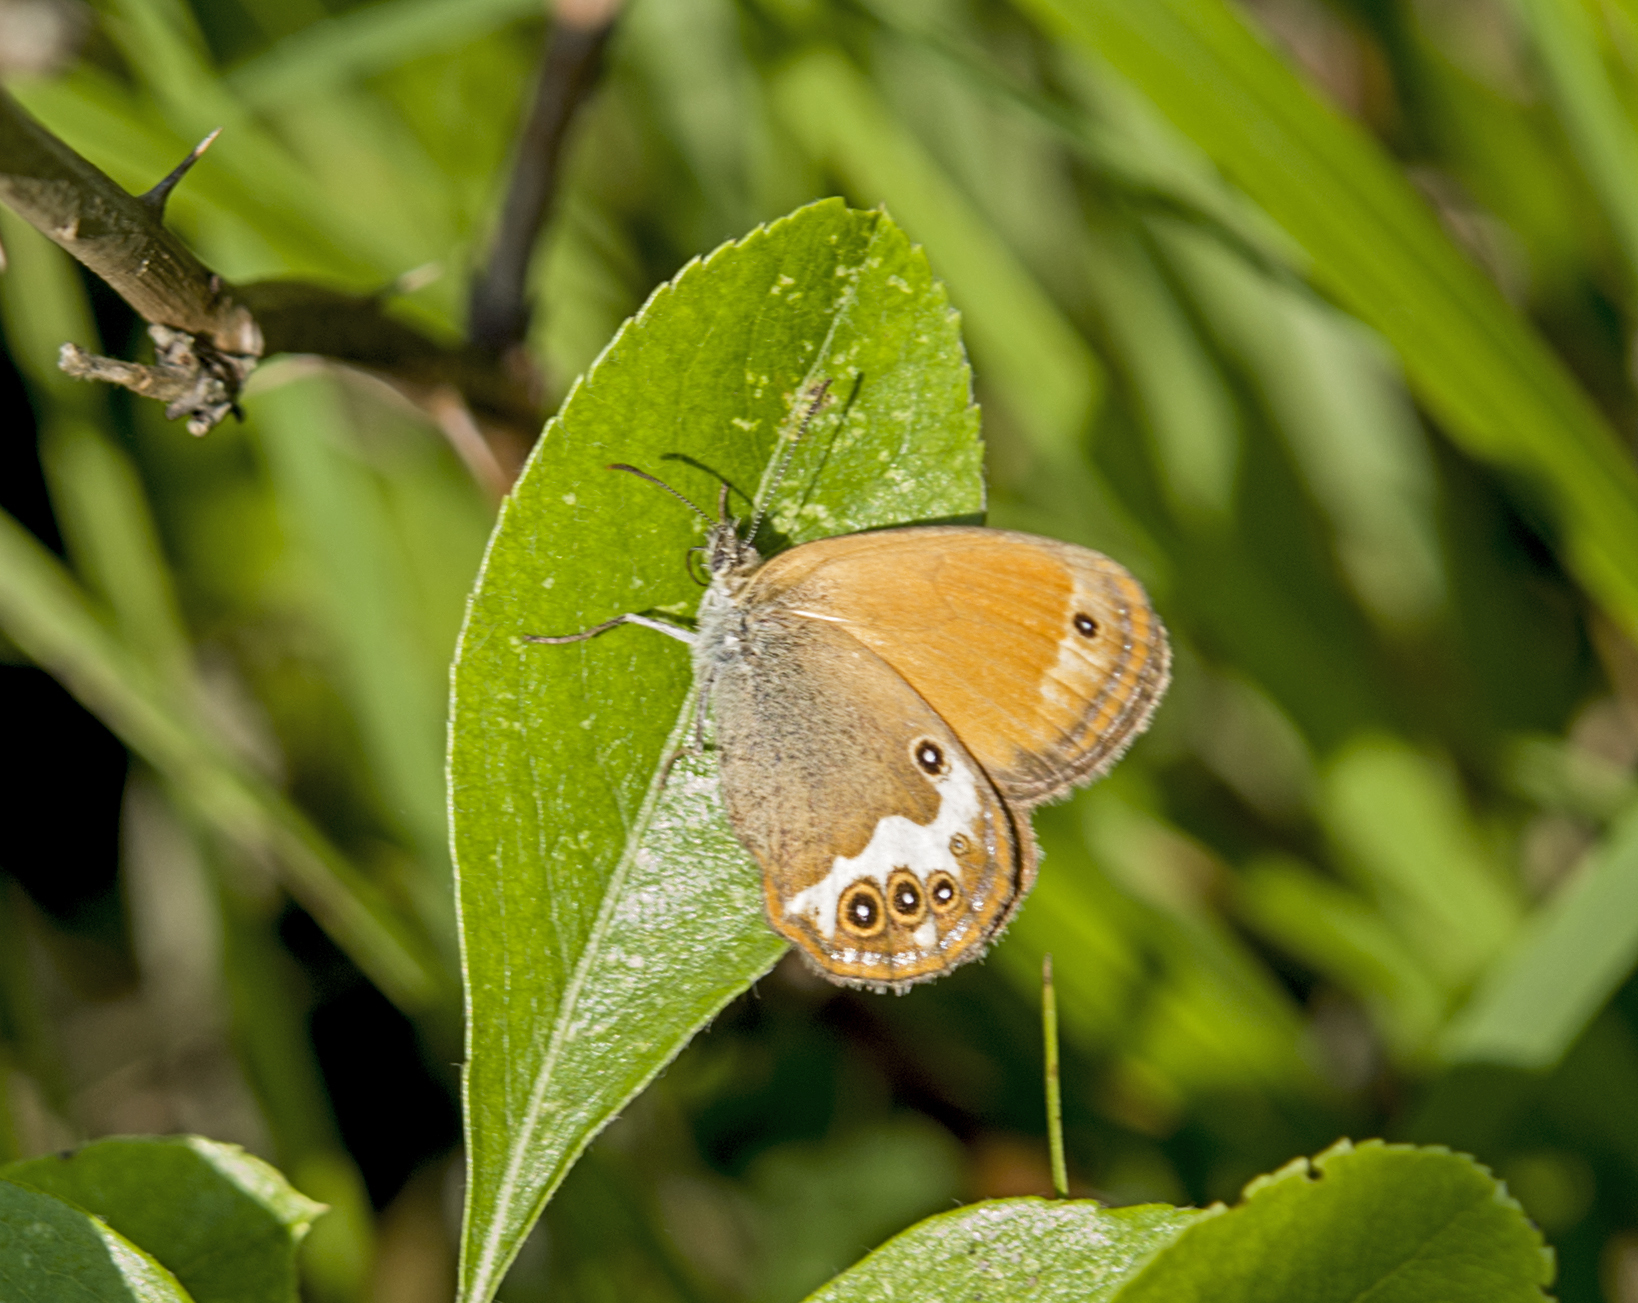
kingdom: Animalia
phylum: Arthropoda
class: Insecta
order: Lepidoptera
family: Nymphalidae
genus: Coenonympha
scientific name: Coenonympha arcania
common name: Pearly heath
